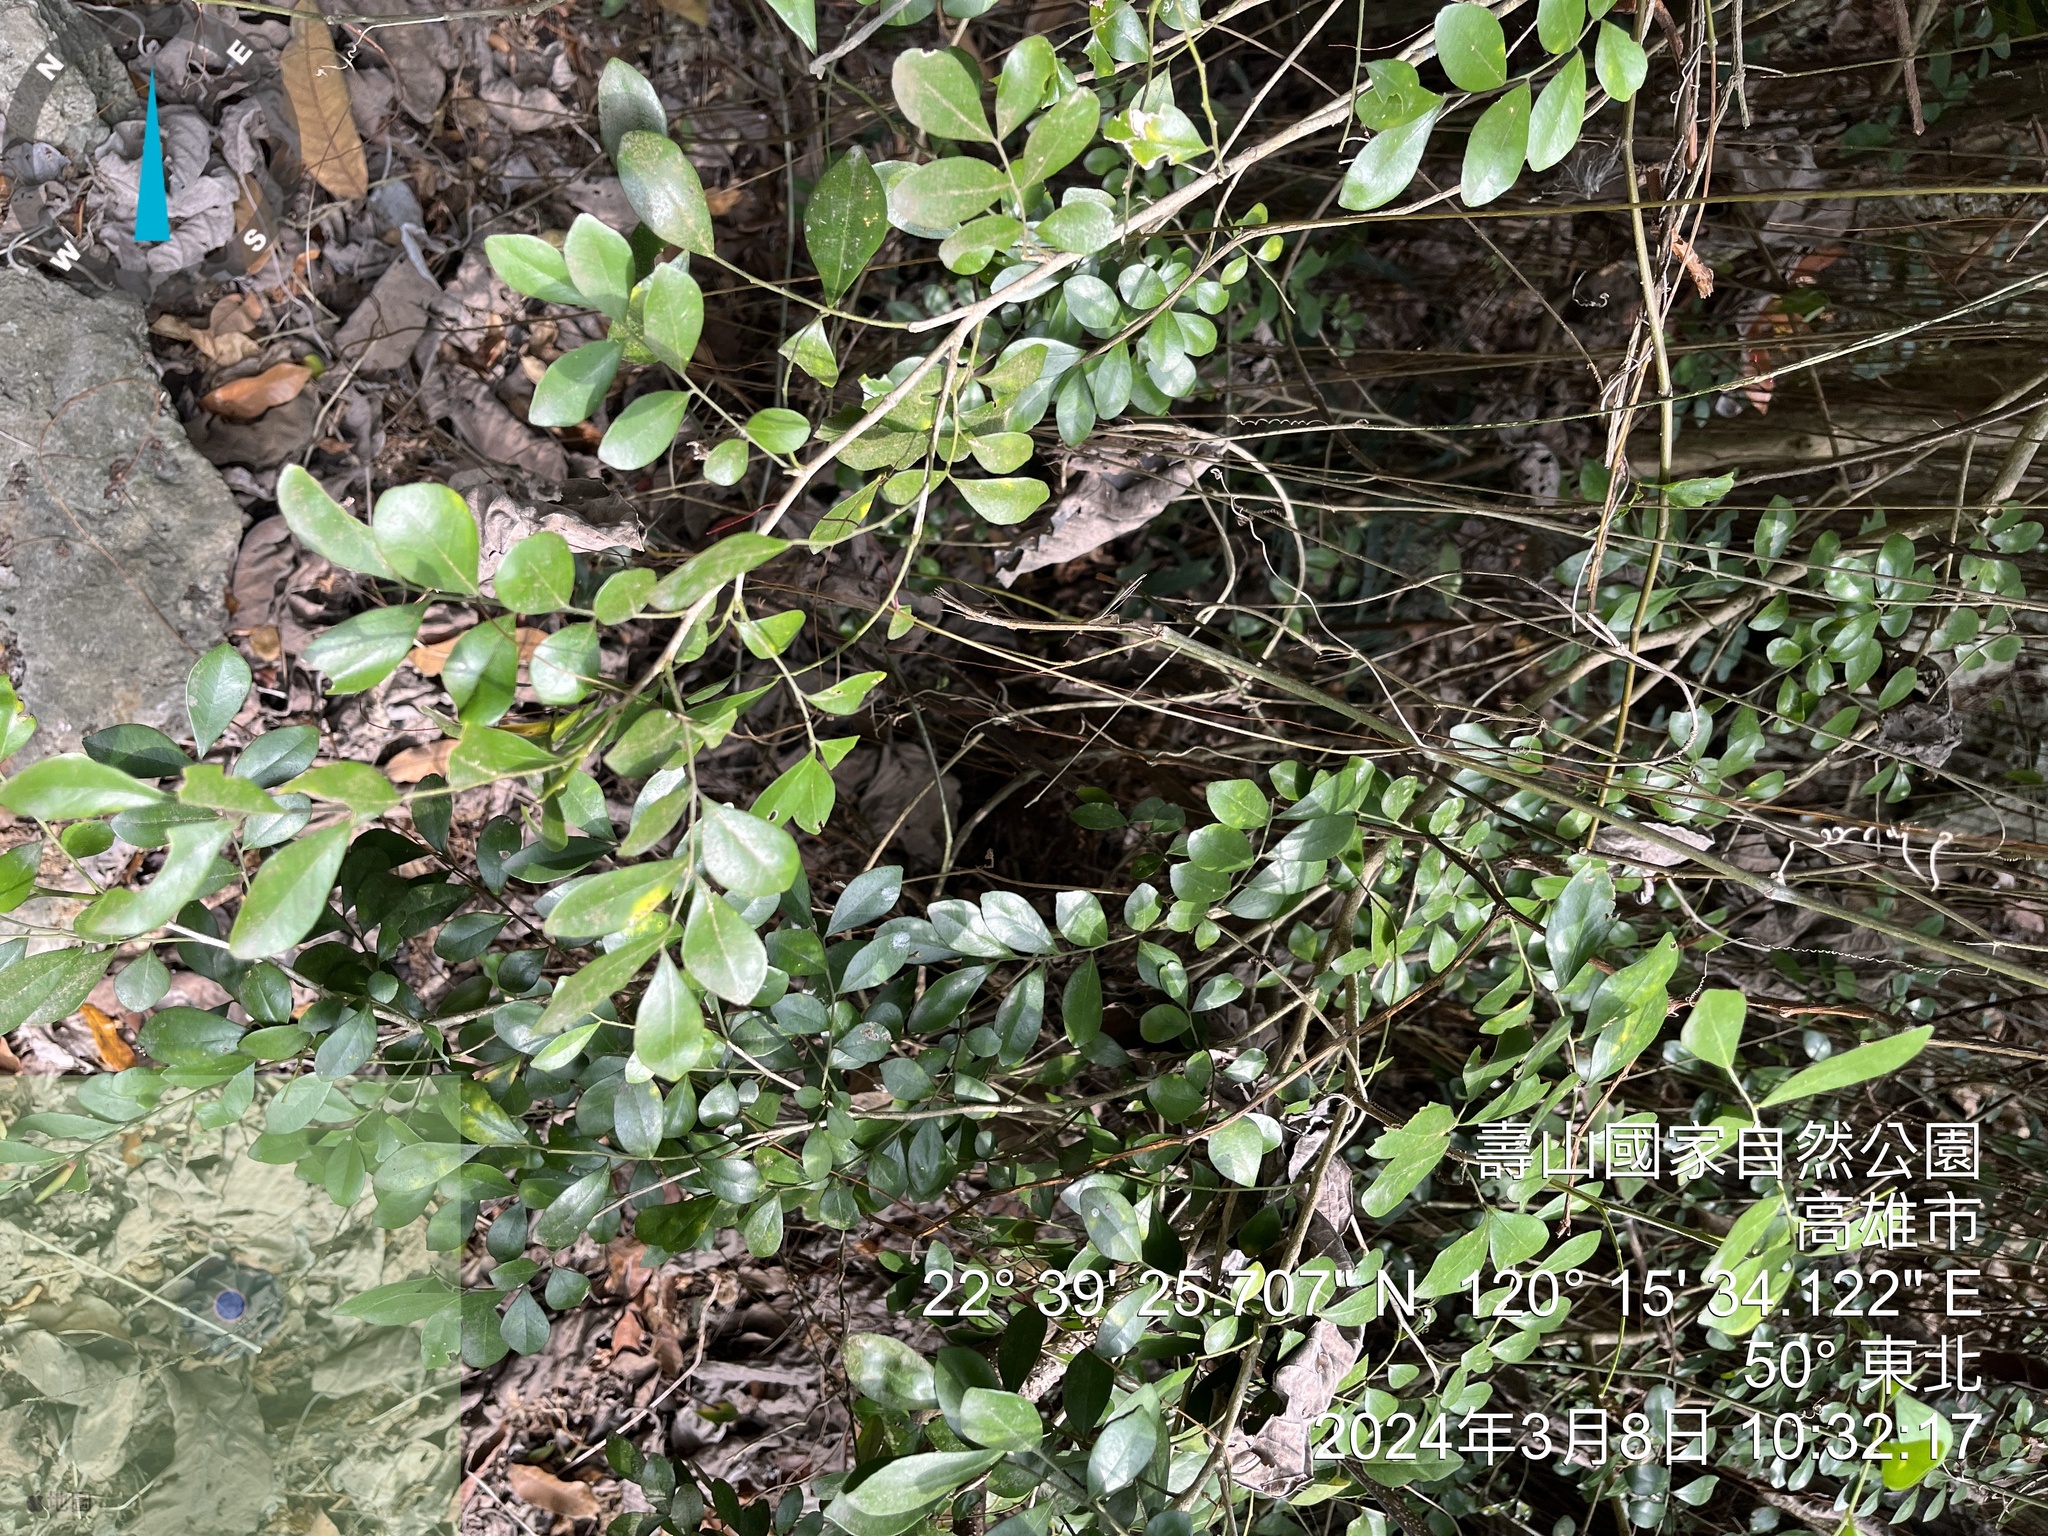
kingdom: Plantae
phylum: Tracheophyta
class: Magnoliopsida
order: Sapindales
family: Rutaceae
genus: Murraya
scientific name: Murraya paniculata
